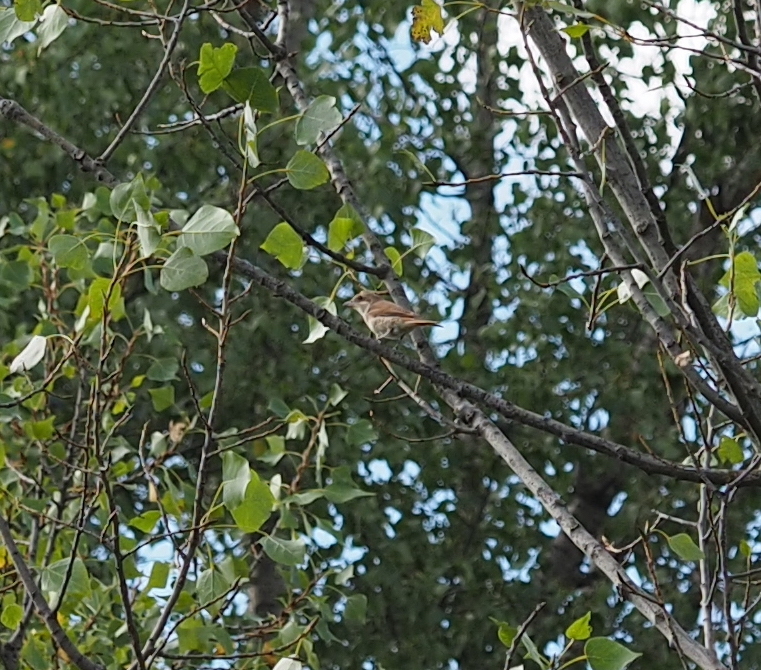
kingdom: Animalia
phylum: Chordata
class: Aves
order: Passeriformes
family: Laniidae
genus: Lanius
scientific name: Lanius collurio
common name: Red-backed shrike
